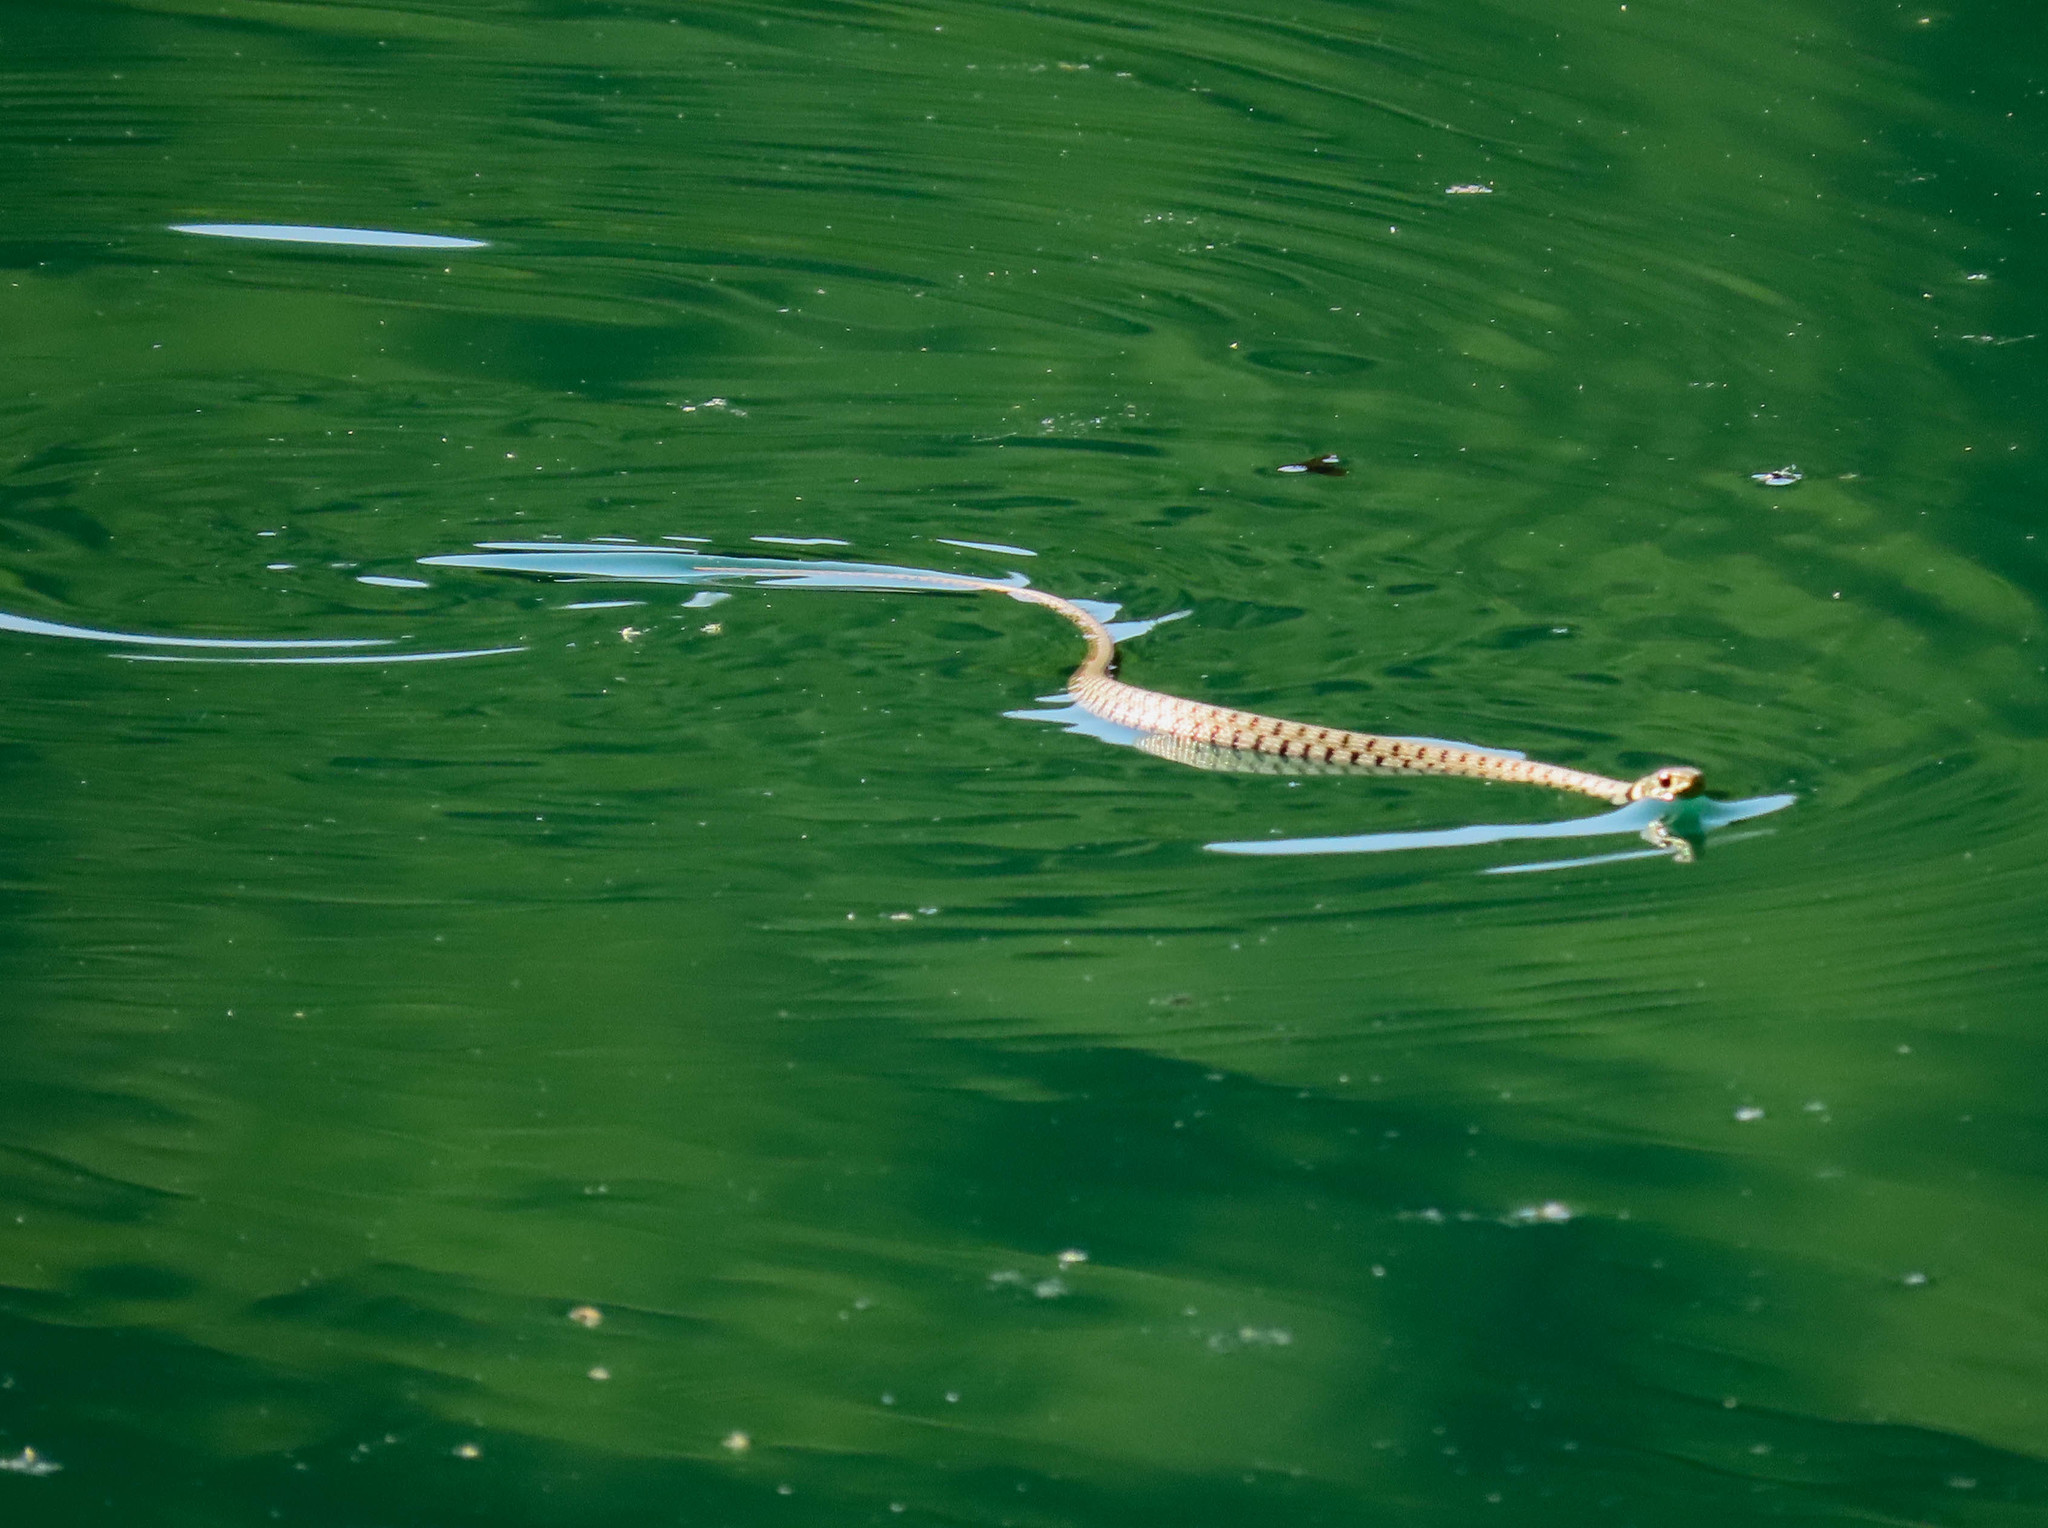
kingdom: Animalia
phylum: Chordata
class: Squamata
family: Colubridae
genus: Natrix
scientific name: Natrix helvetica
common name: Banded grass snake
